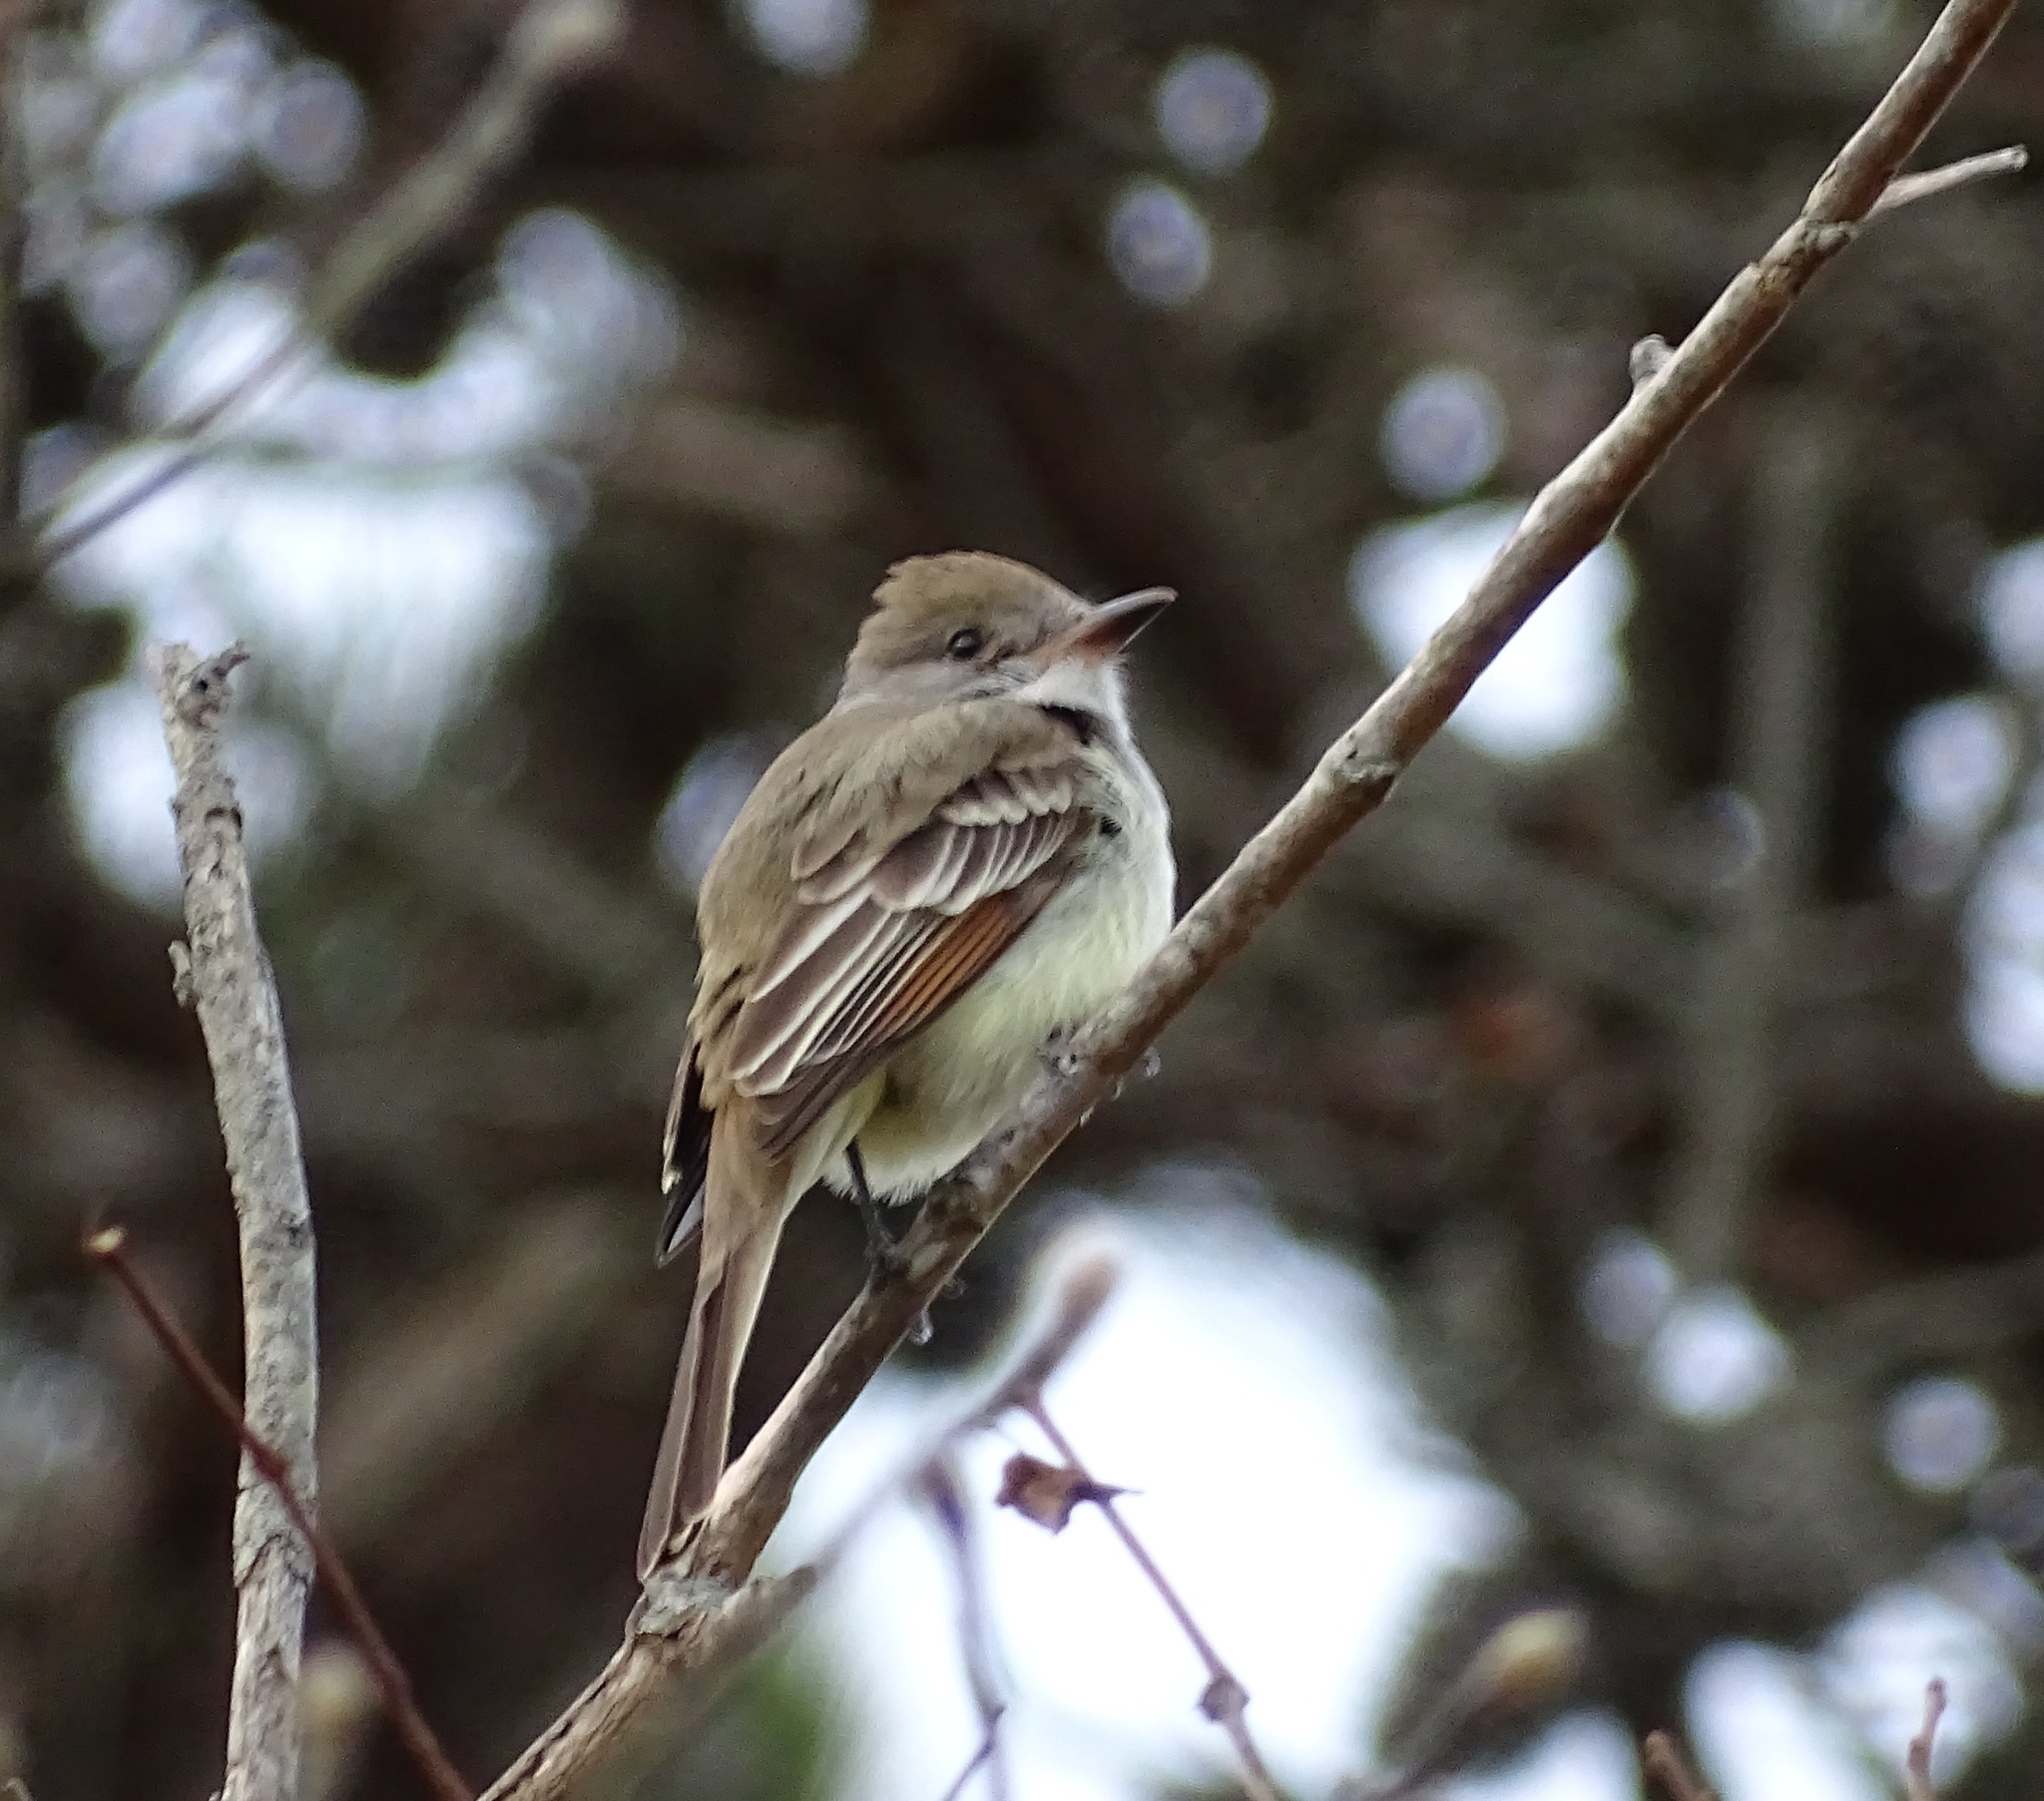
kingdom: Animalia
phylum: Chordata
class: Aves
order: Passeriformes
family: Tyrannidae
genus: Myiarchus
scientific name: Myiarchus cinerascens
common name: Ash-throated flycatcher
